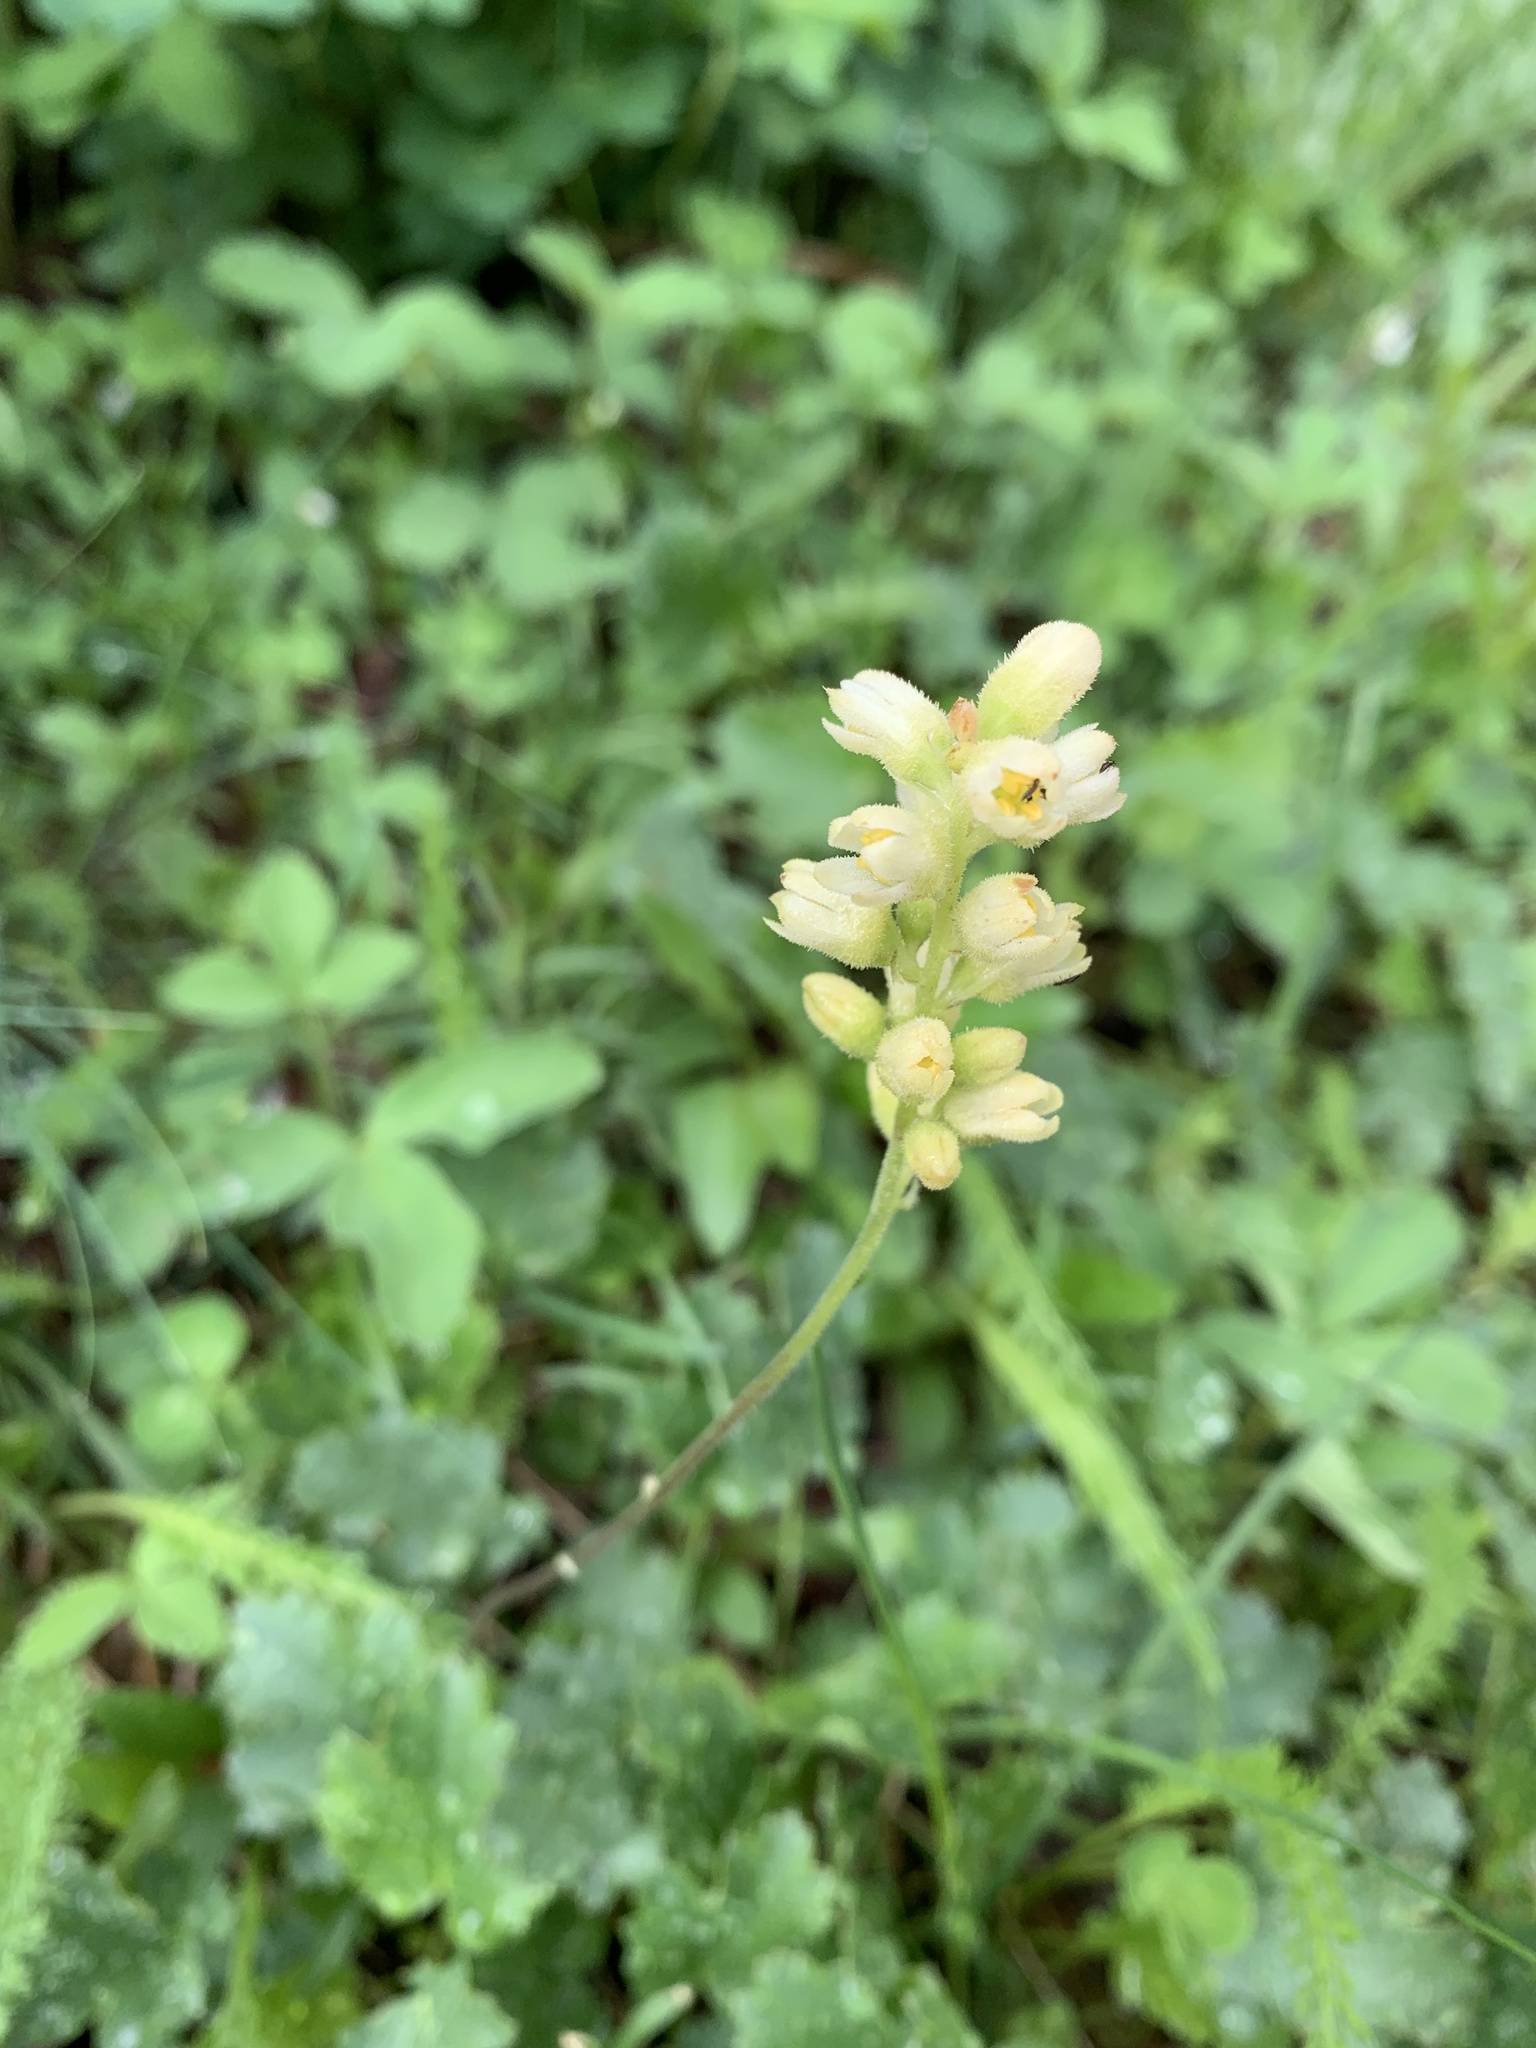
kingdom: Plantae
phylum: Tracheophyta
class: Magnoliopsida
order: Saxifragales
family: Saxifragaceae
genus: Heuchera
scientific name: Heuchera cylindrica
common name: Mat alumroot
